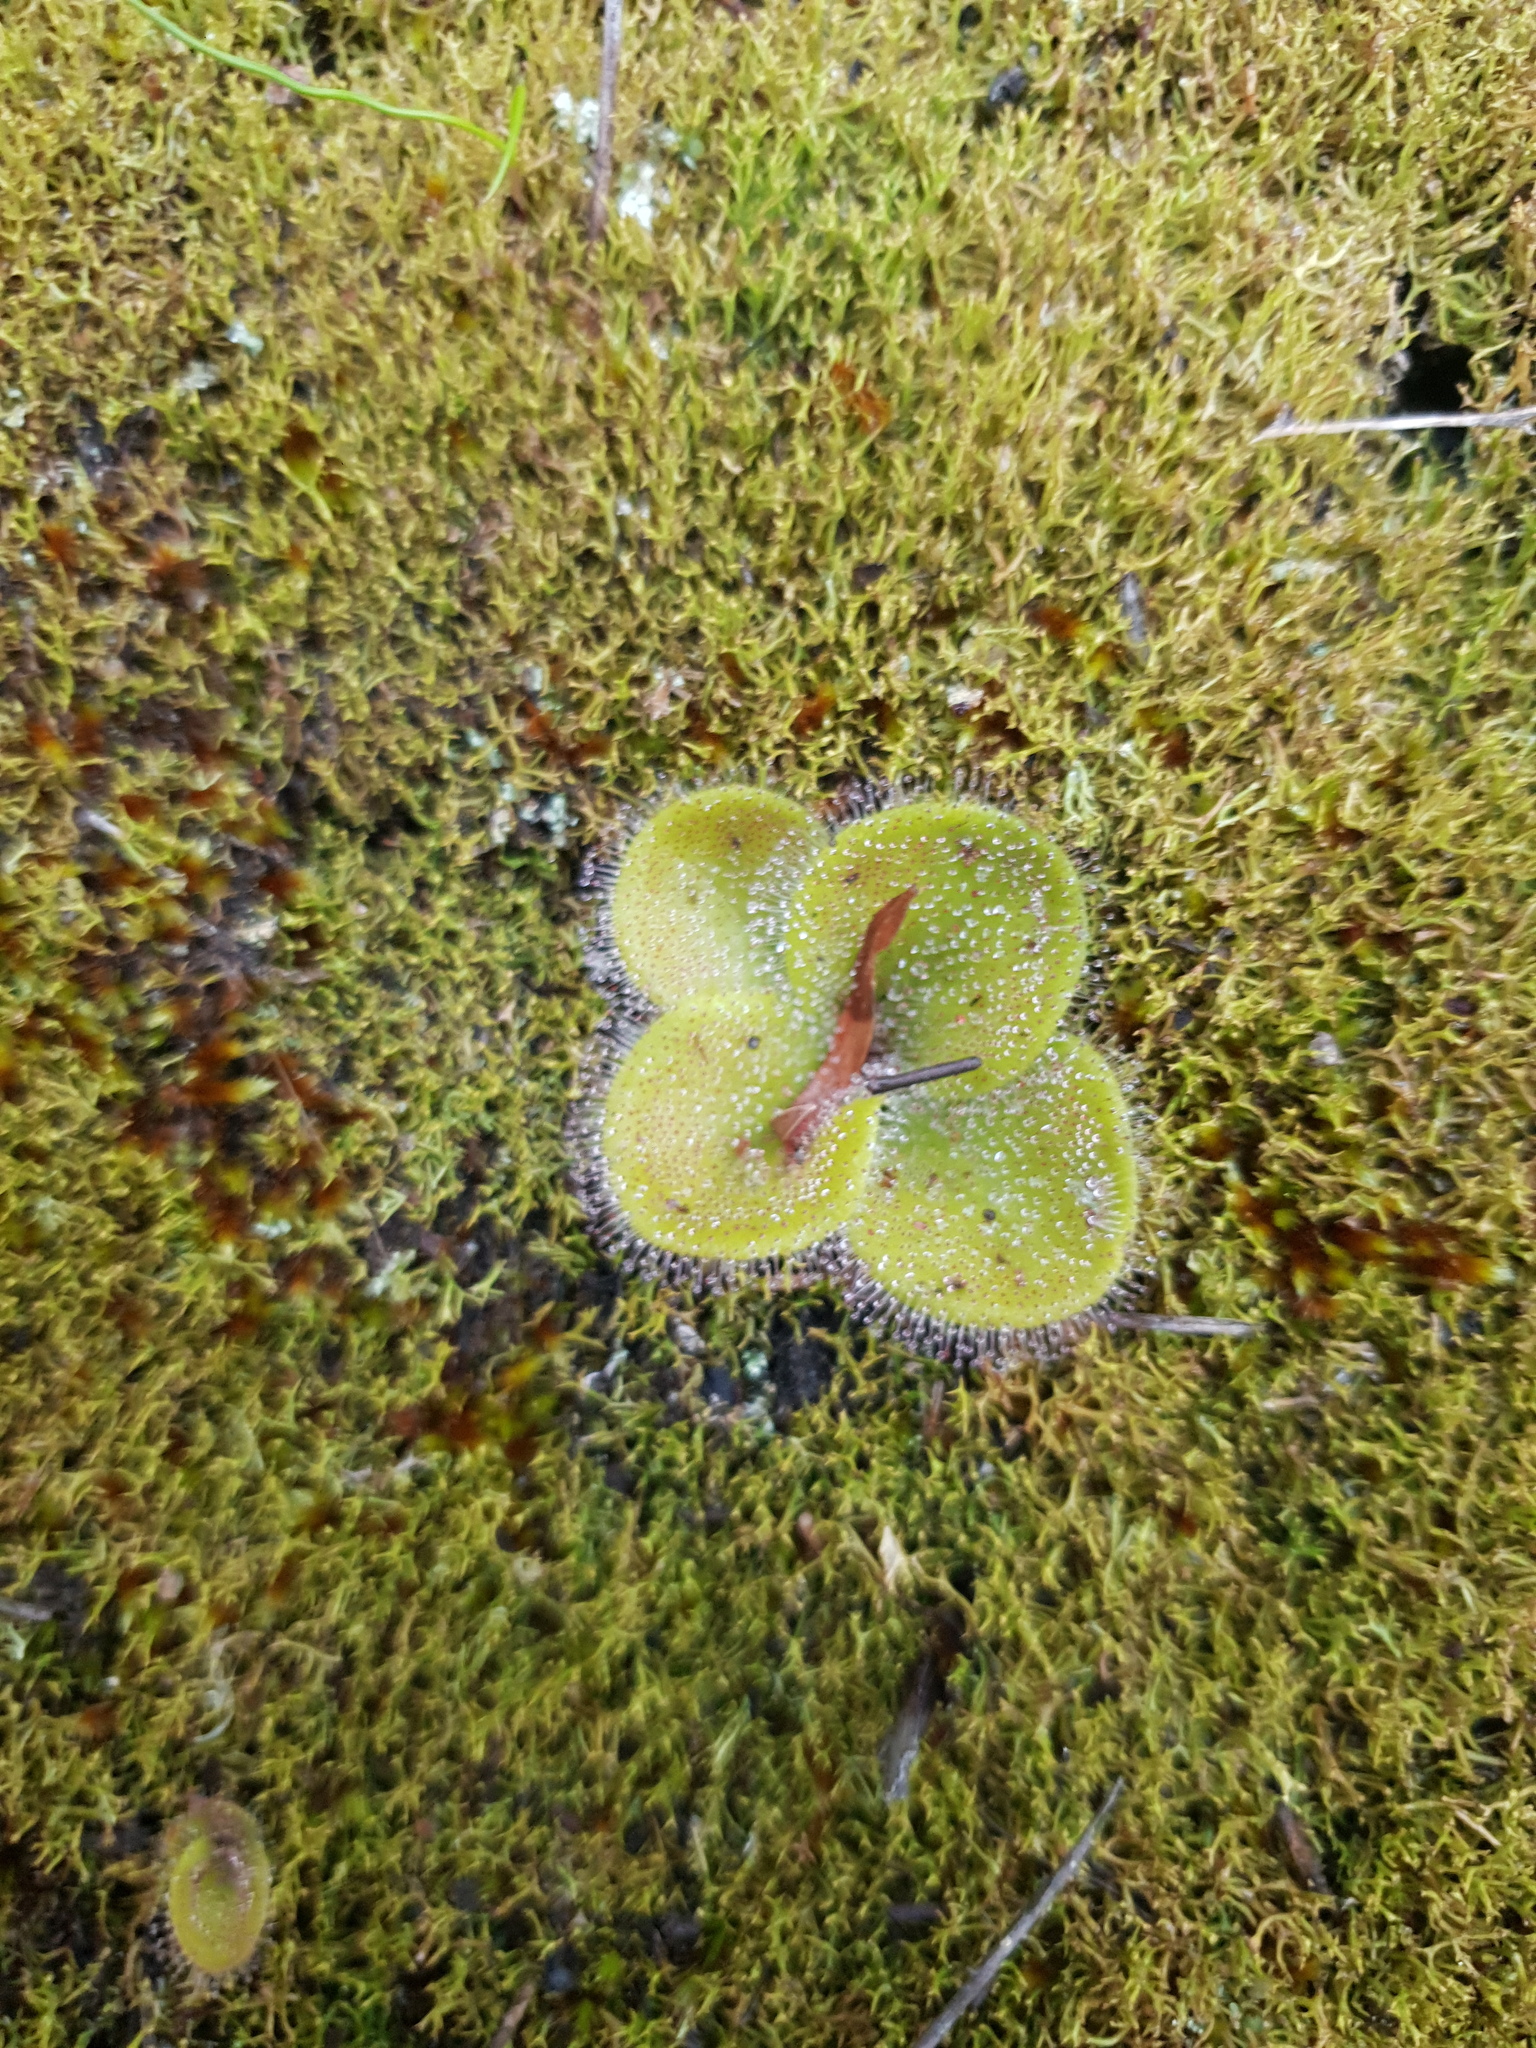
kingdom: Plantae
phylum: Tracheophyta
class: Magnoliopsida
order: Caryophyllales
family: Droseraceae
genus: Drosera
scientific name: Drosera erythrorhiza
